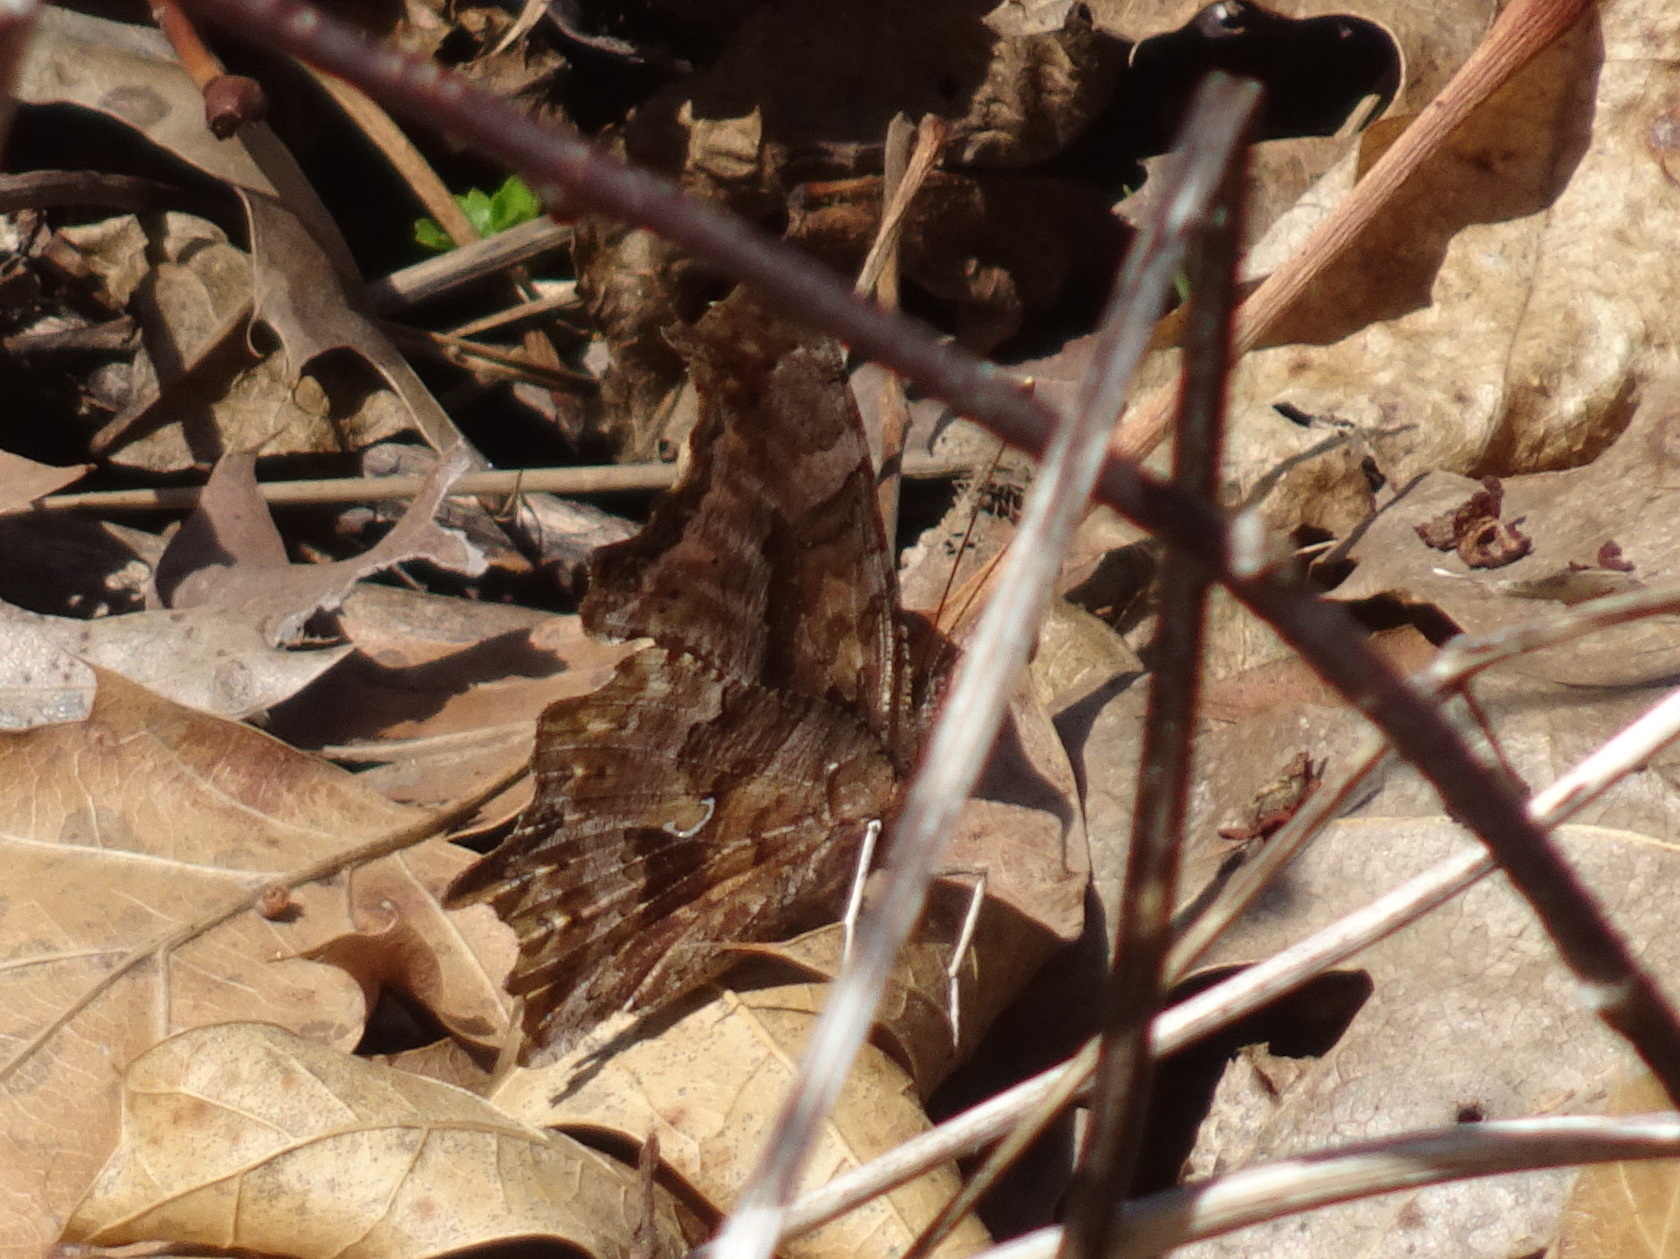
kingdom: Animalia
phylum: Arthropoda
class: Insecta
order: Lepidoptera
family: Nymphalidae
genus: Polygonia
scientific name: Polygonia comma
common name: Eastern comma
